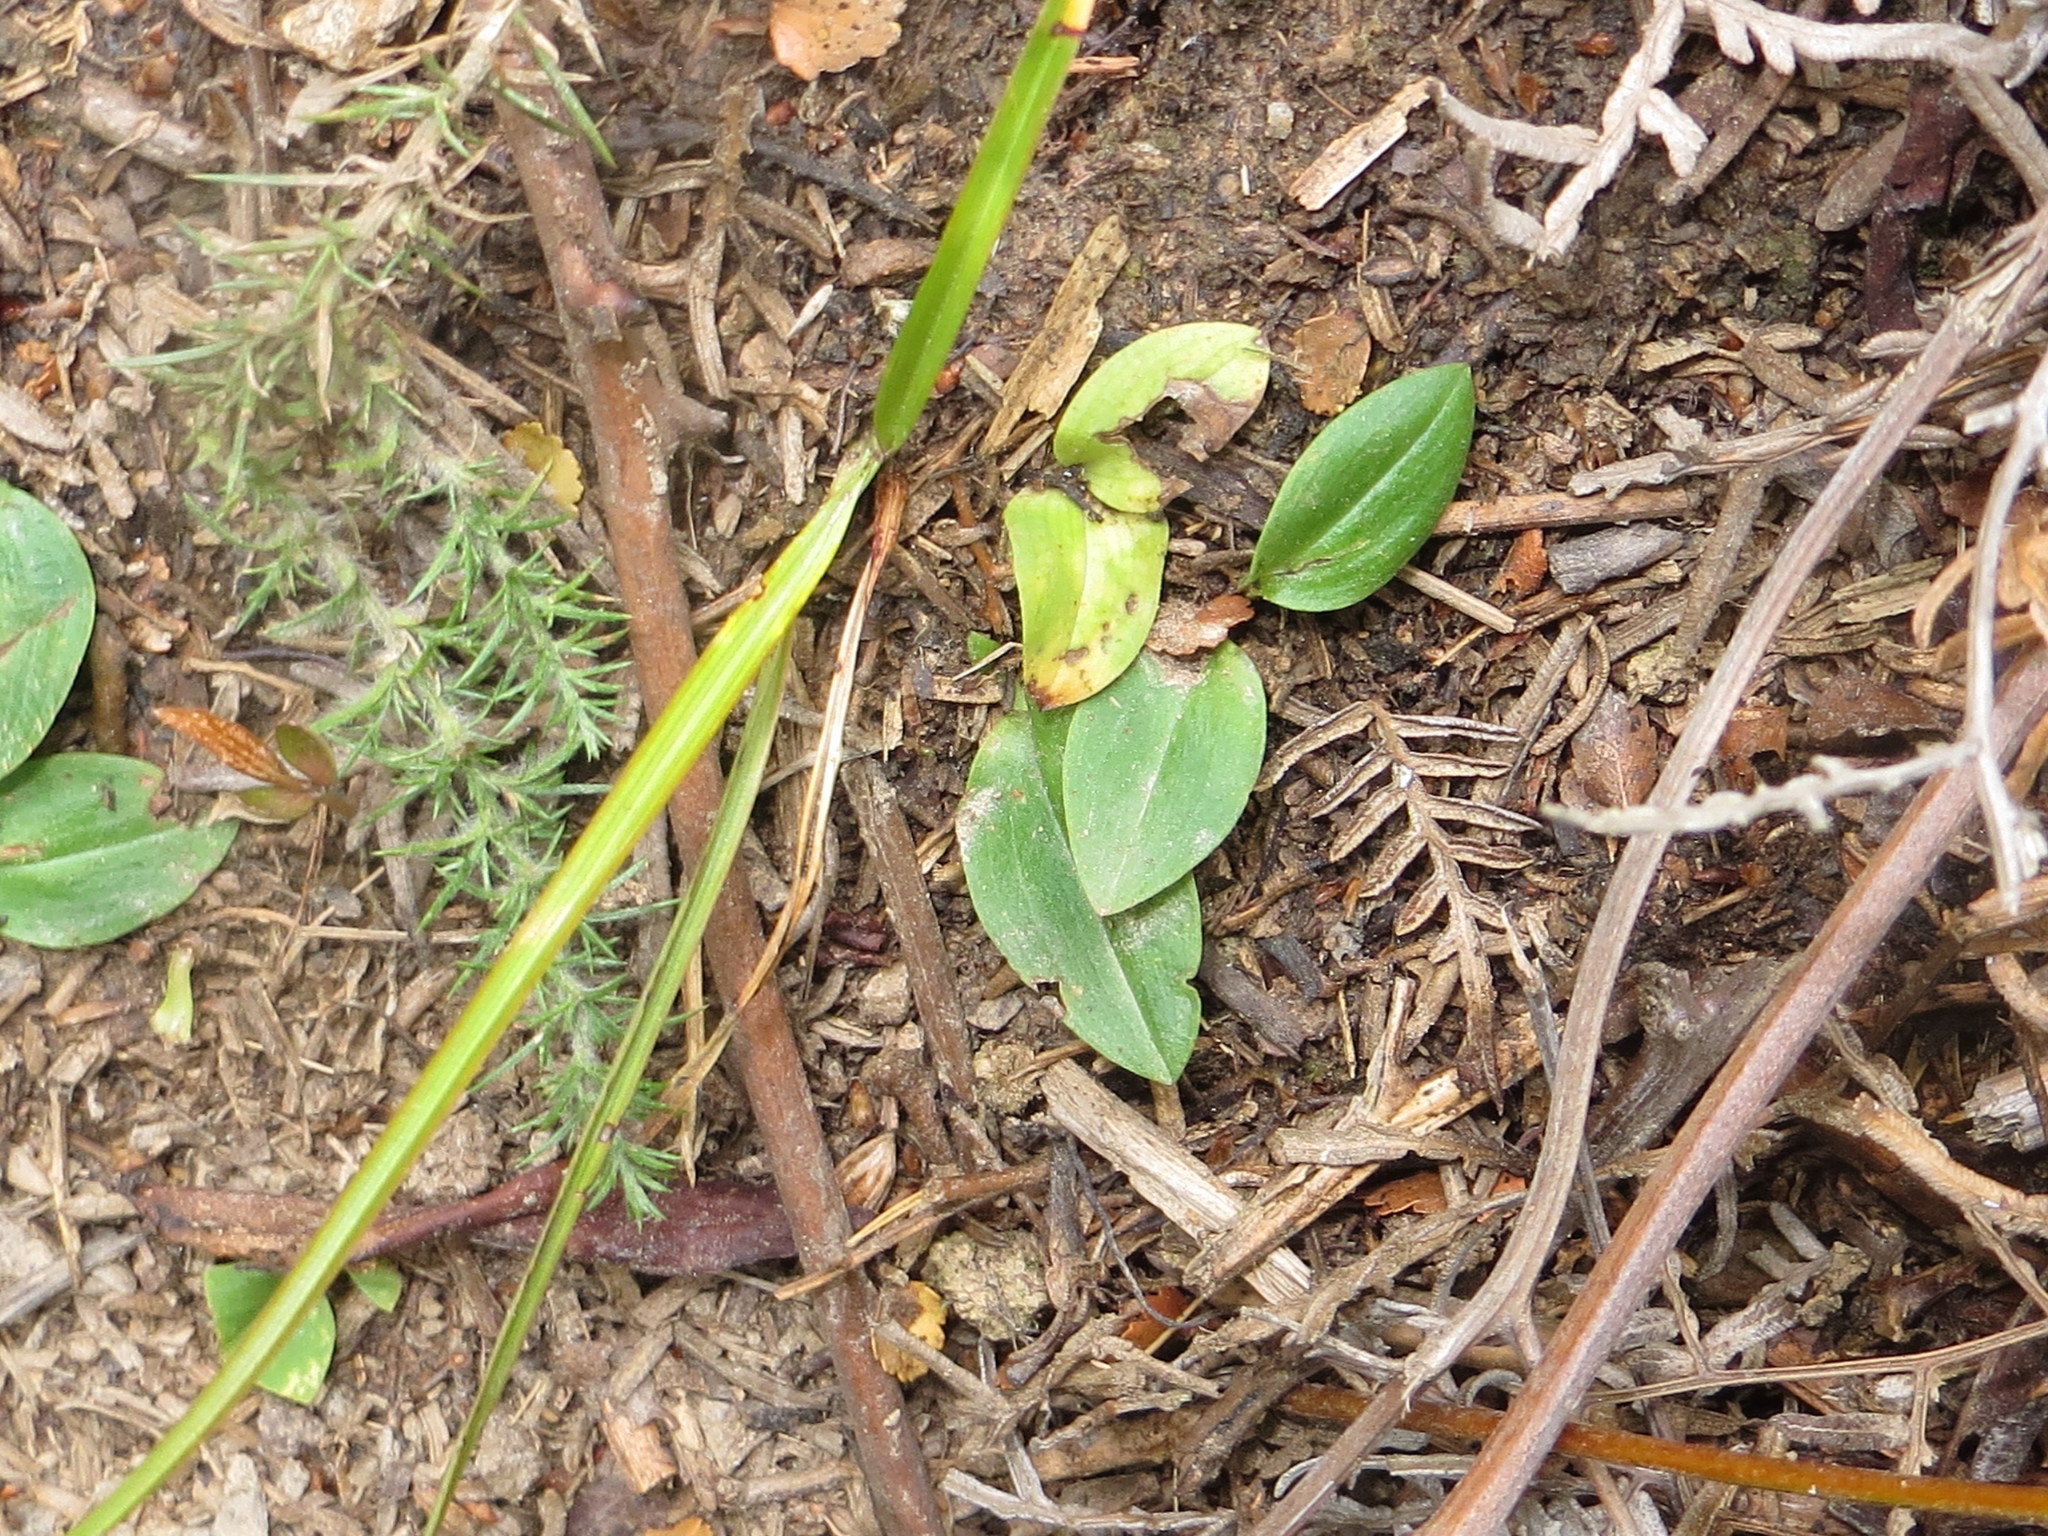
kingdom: Plantae
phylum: Tracheophyta
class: Liliopsida
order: Asparagales
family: Orchidaceae
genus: Chiloglottis
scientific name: Chiloglottis cornuta
